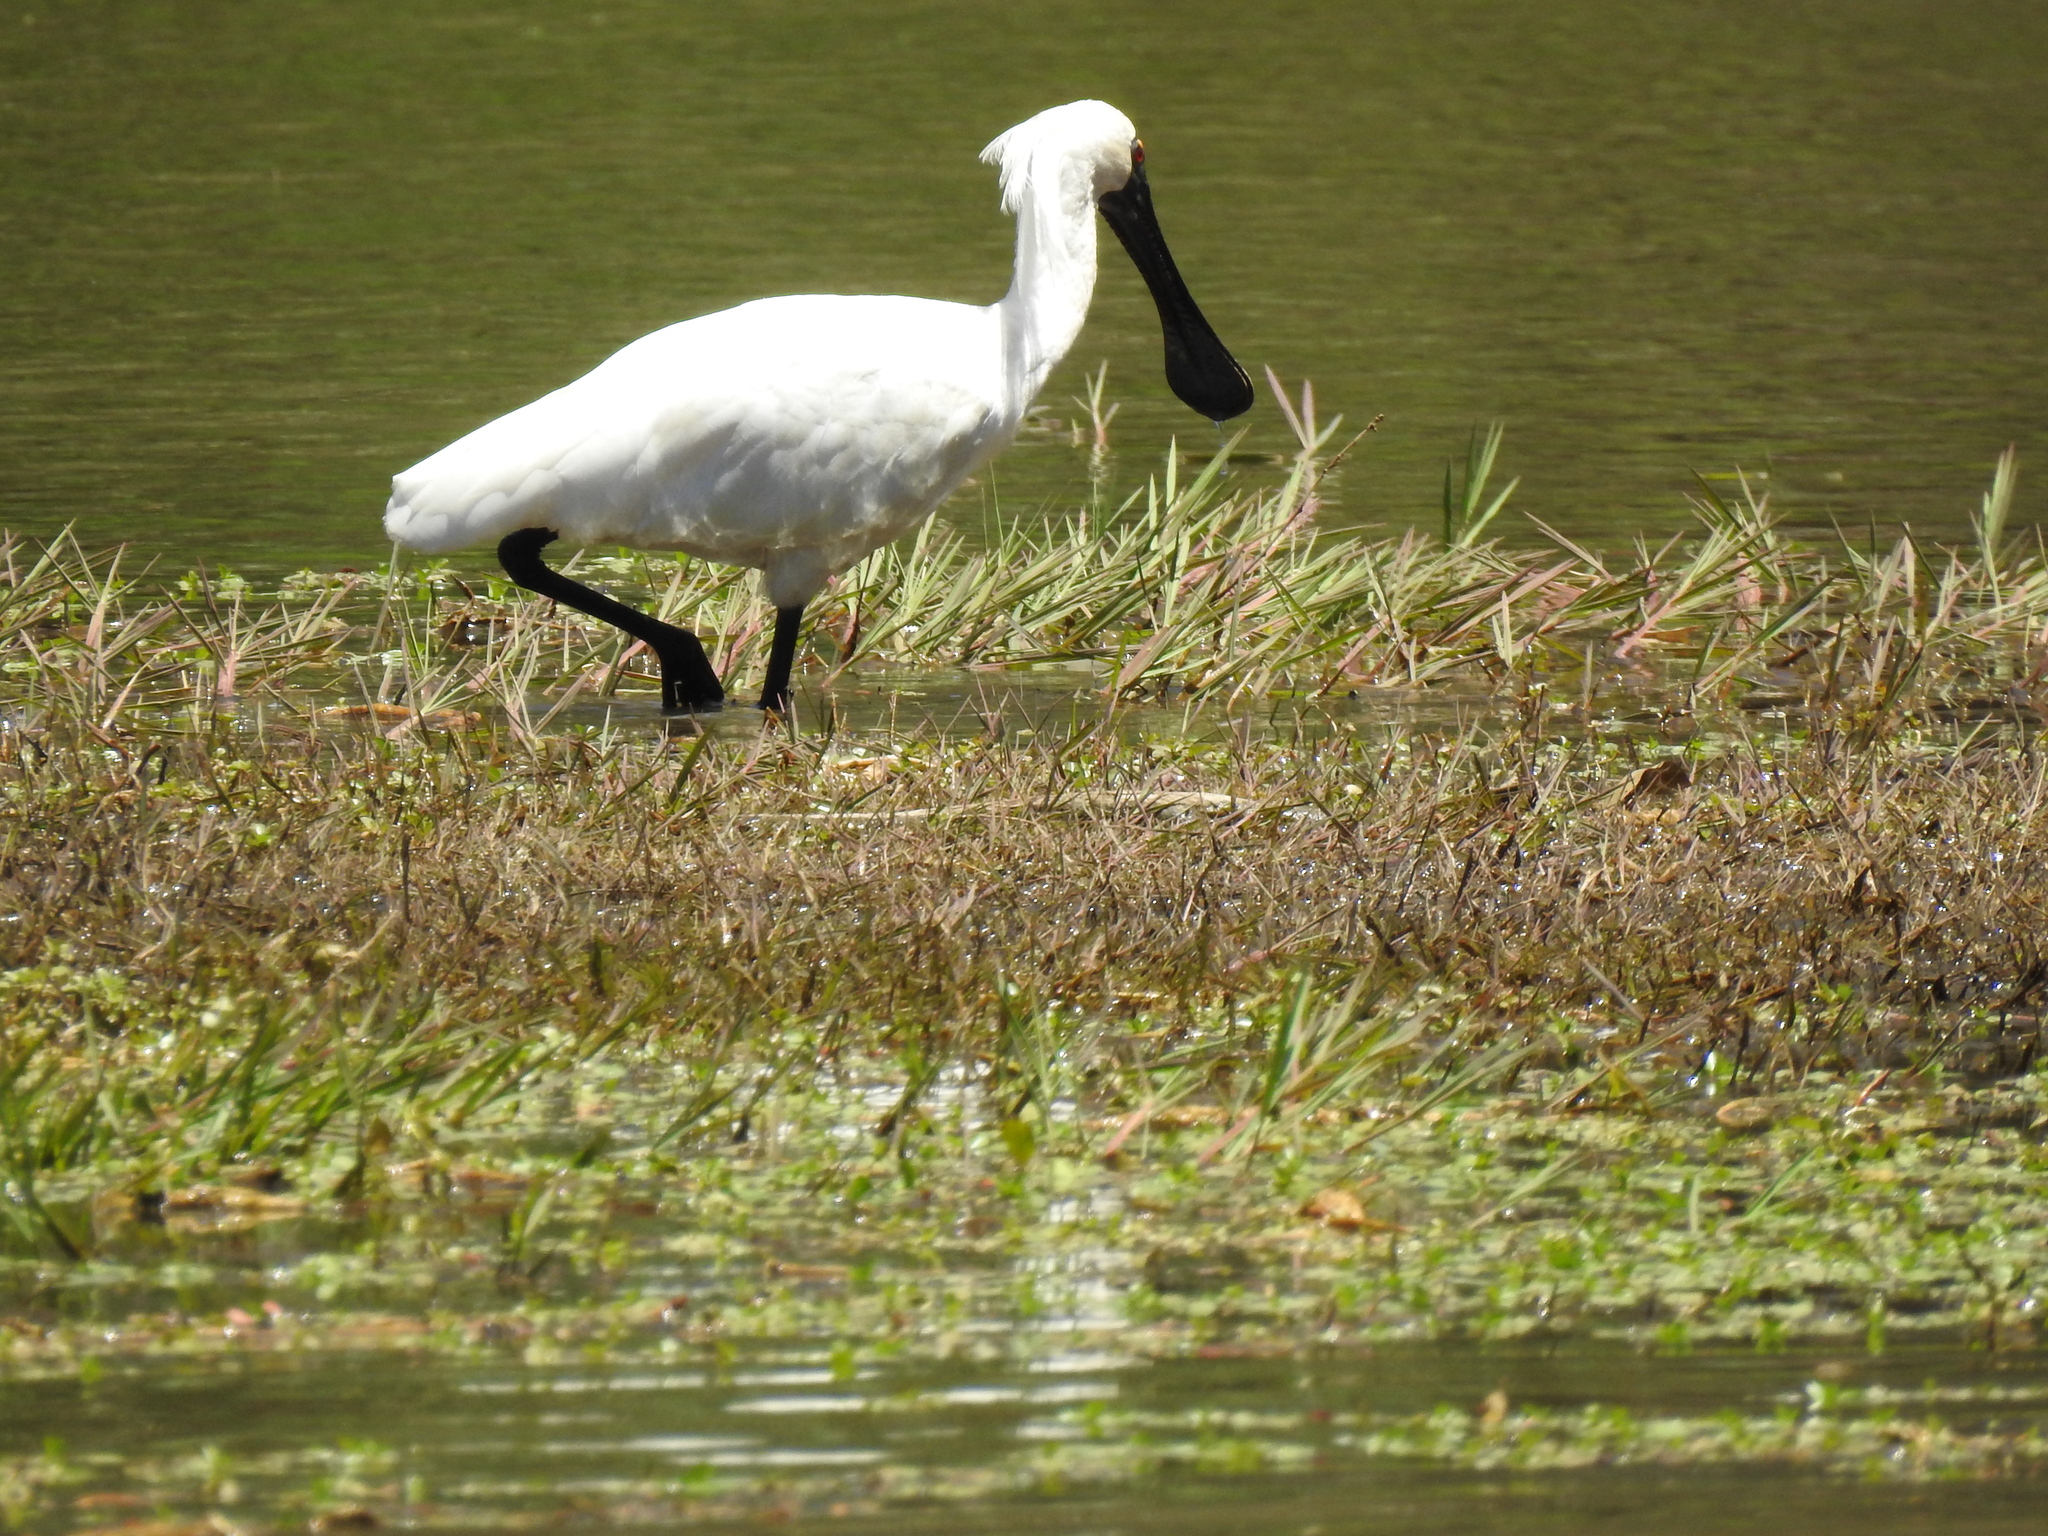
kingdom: Animalia
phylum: Chordata
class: Aves
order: Pelecaniformes
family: Threskiornithidae
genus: Platalea
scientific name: Platalea regia
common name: Royal spoonbill
